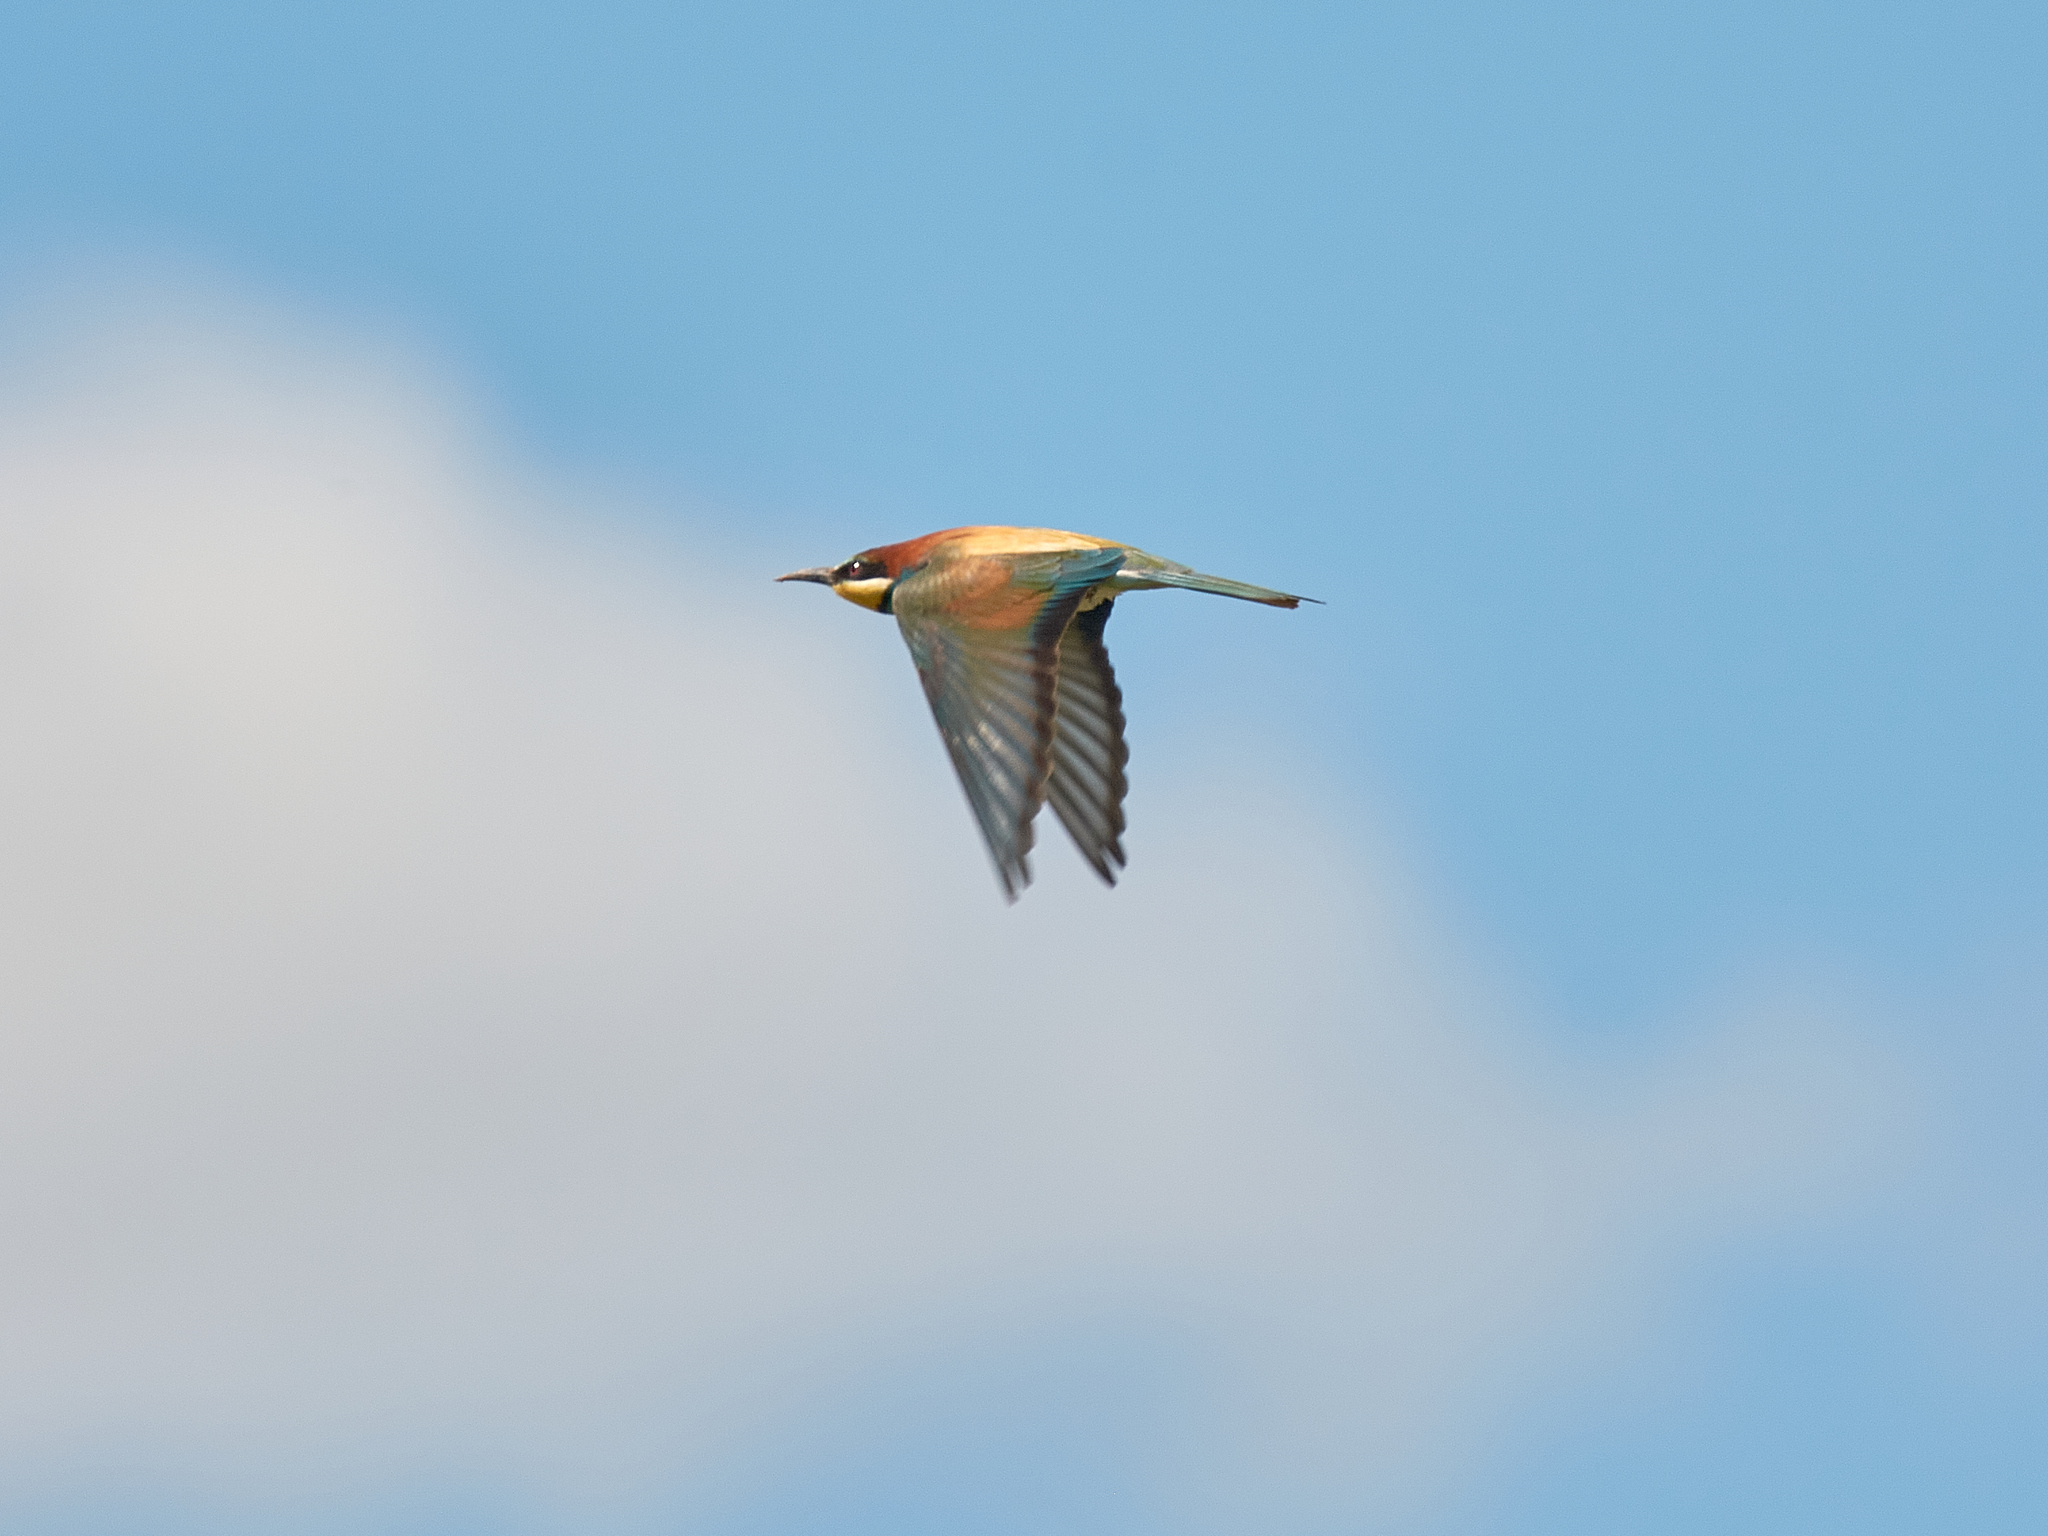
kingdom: Animalia
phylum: Chordata
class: Aves
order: Coraciiformes
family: Meropidae
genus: Merops
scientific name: Merops apiaster
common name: European bee-eater
